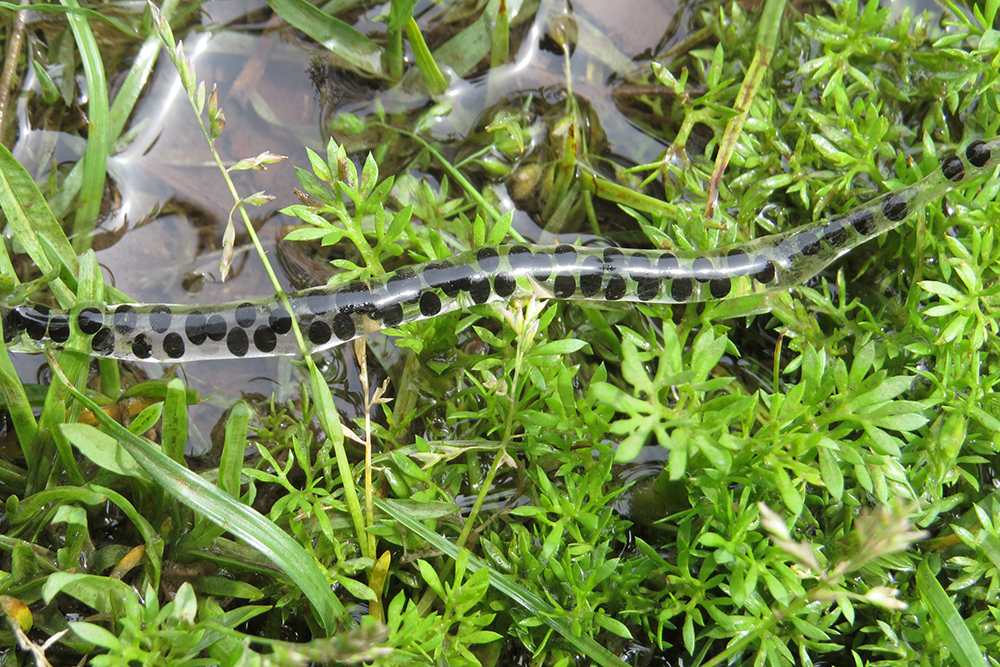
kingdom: Animalia
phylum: Chordata
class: Amphibia
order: Anura
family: Bufonidae
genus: Rhinella
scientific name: Rhinella arenarum
